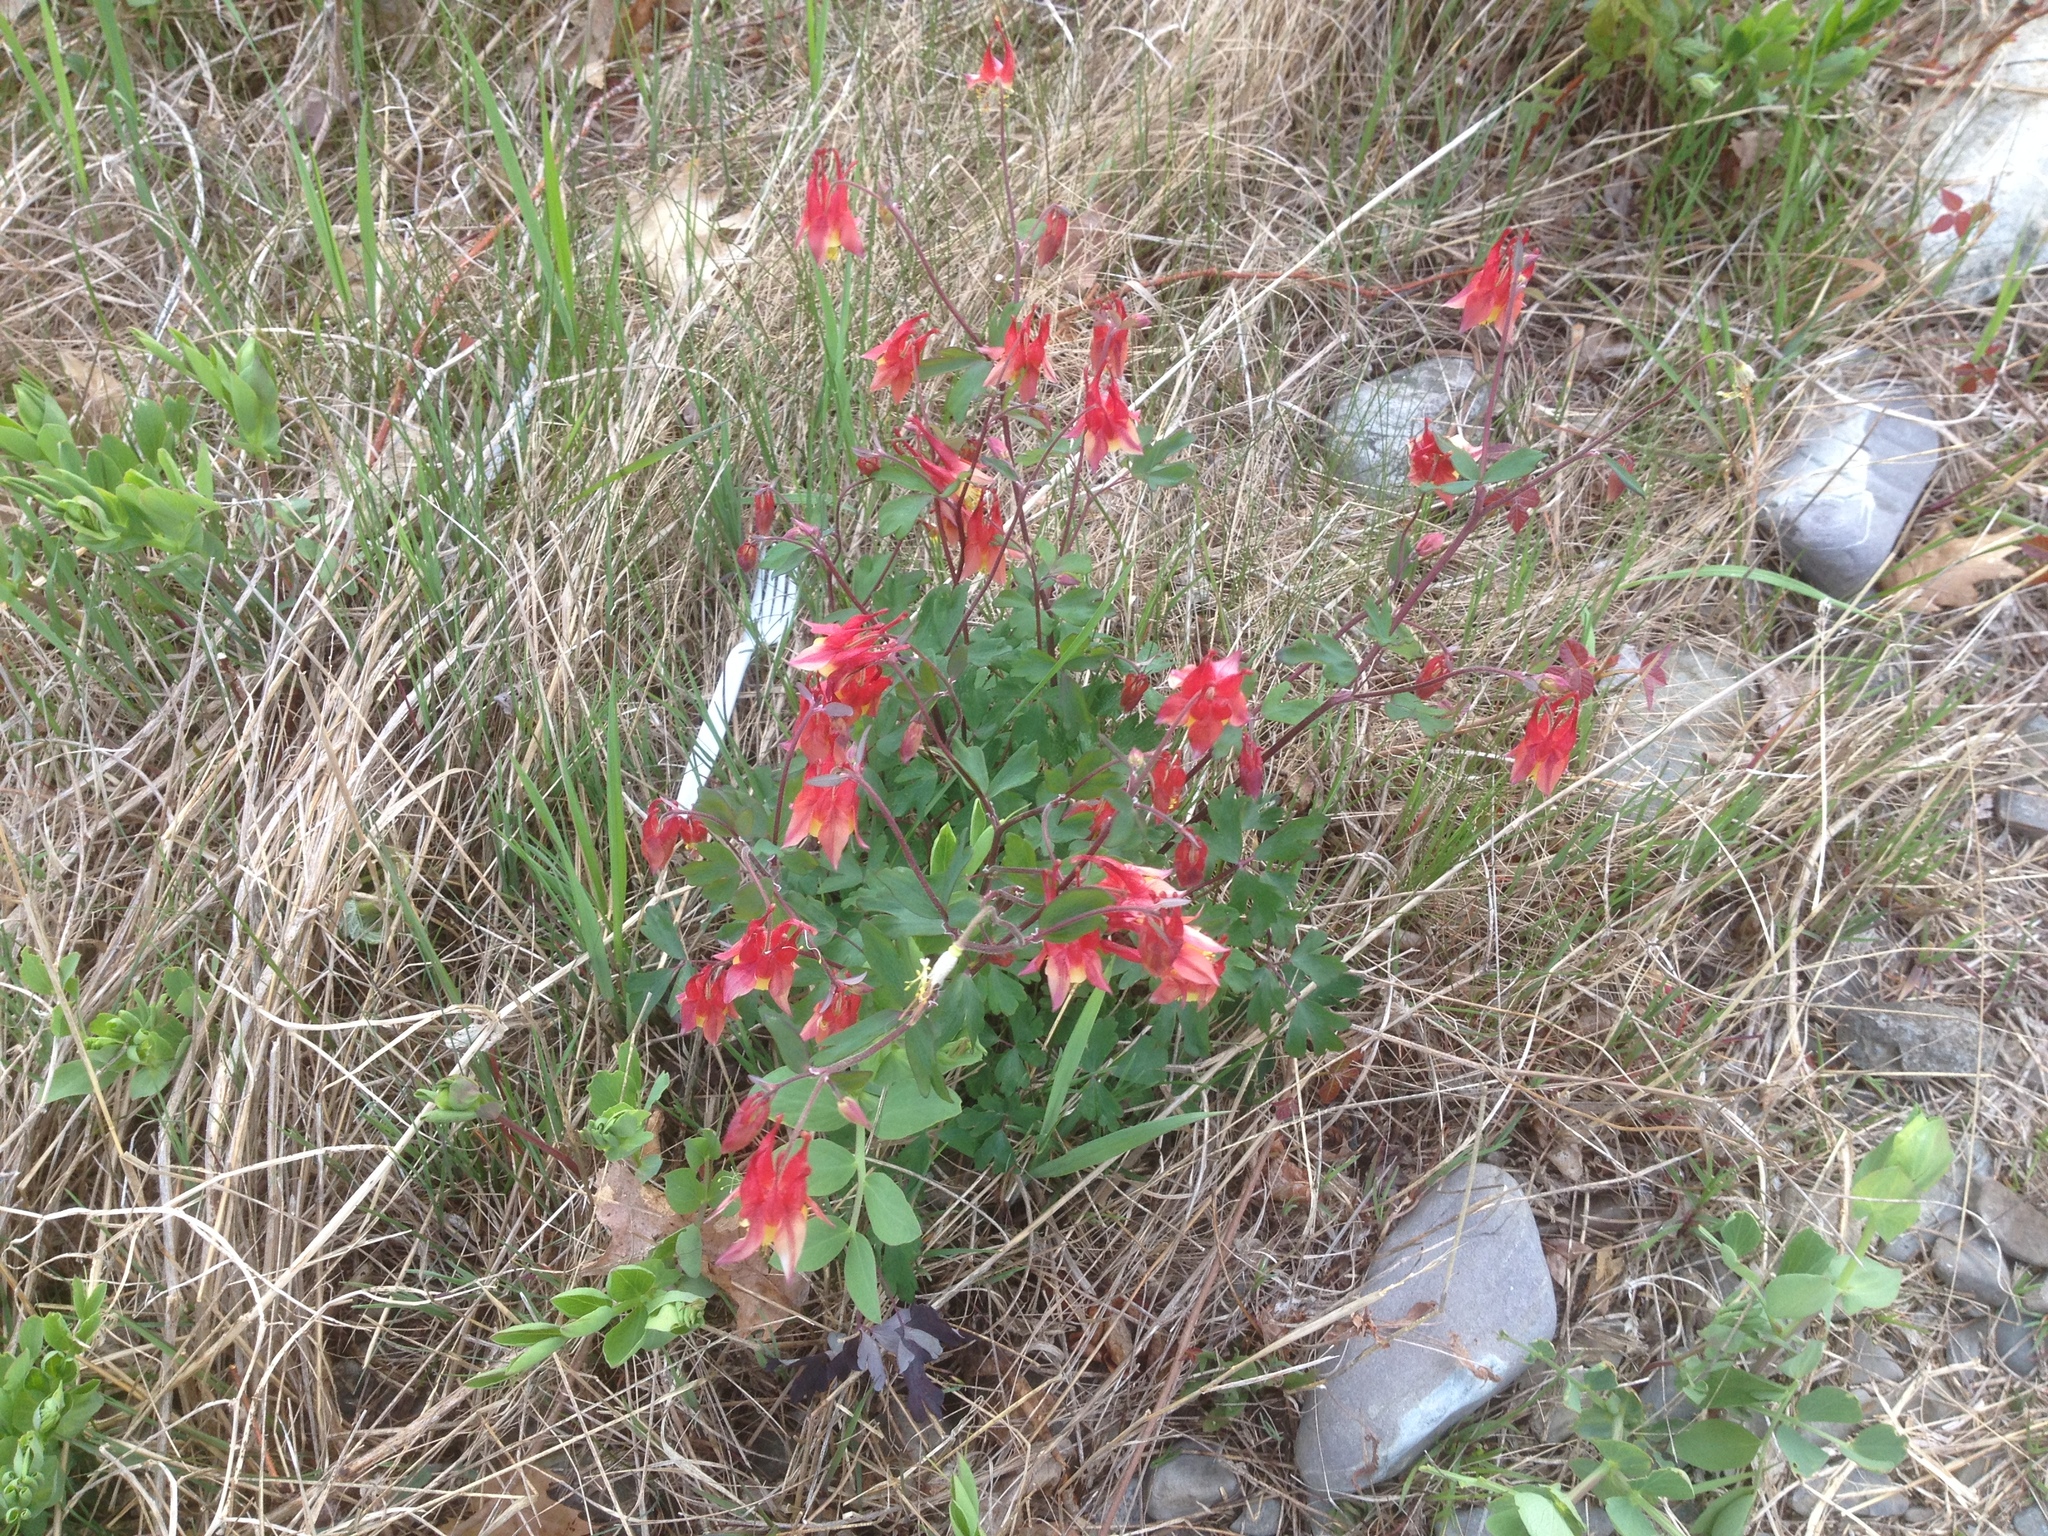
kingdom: Plantae
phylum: Tracheophyta
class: Magnoliopsida
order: Ranunculales
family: Ranunculaceae
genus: Aquilegia
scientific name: Aquilegia canadensis
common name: American columbine
